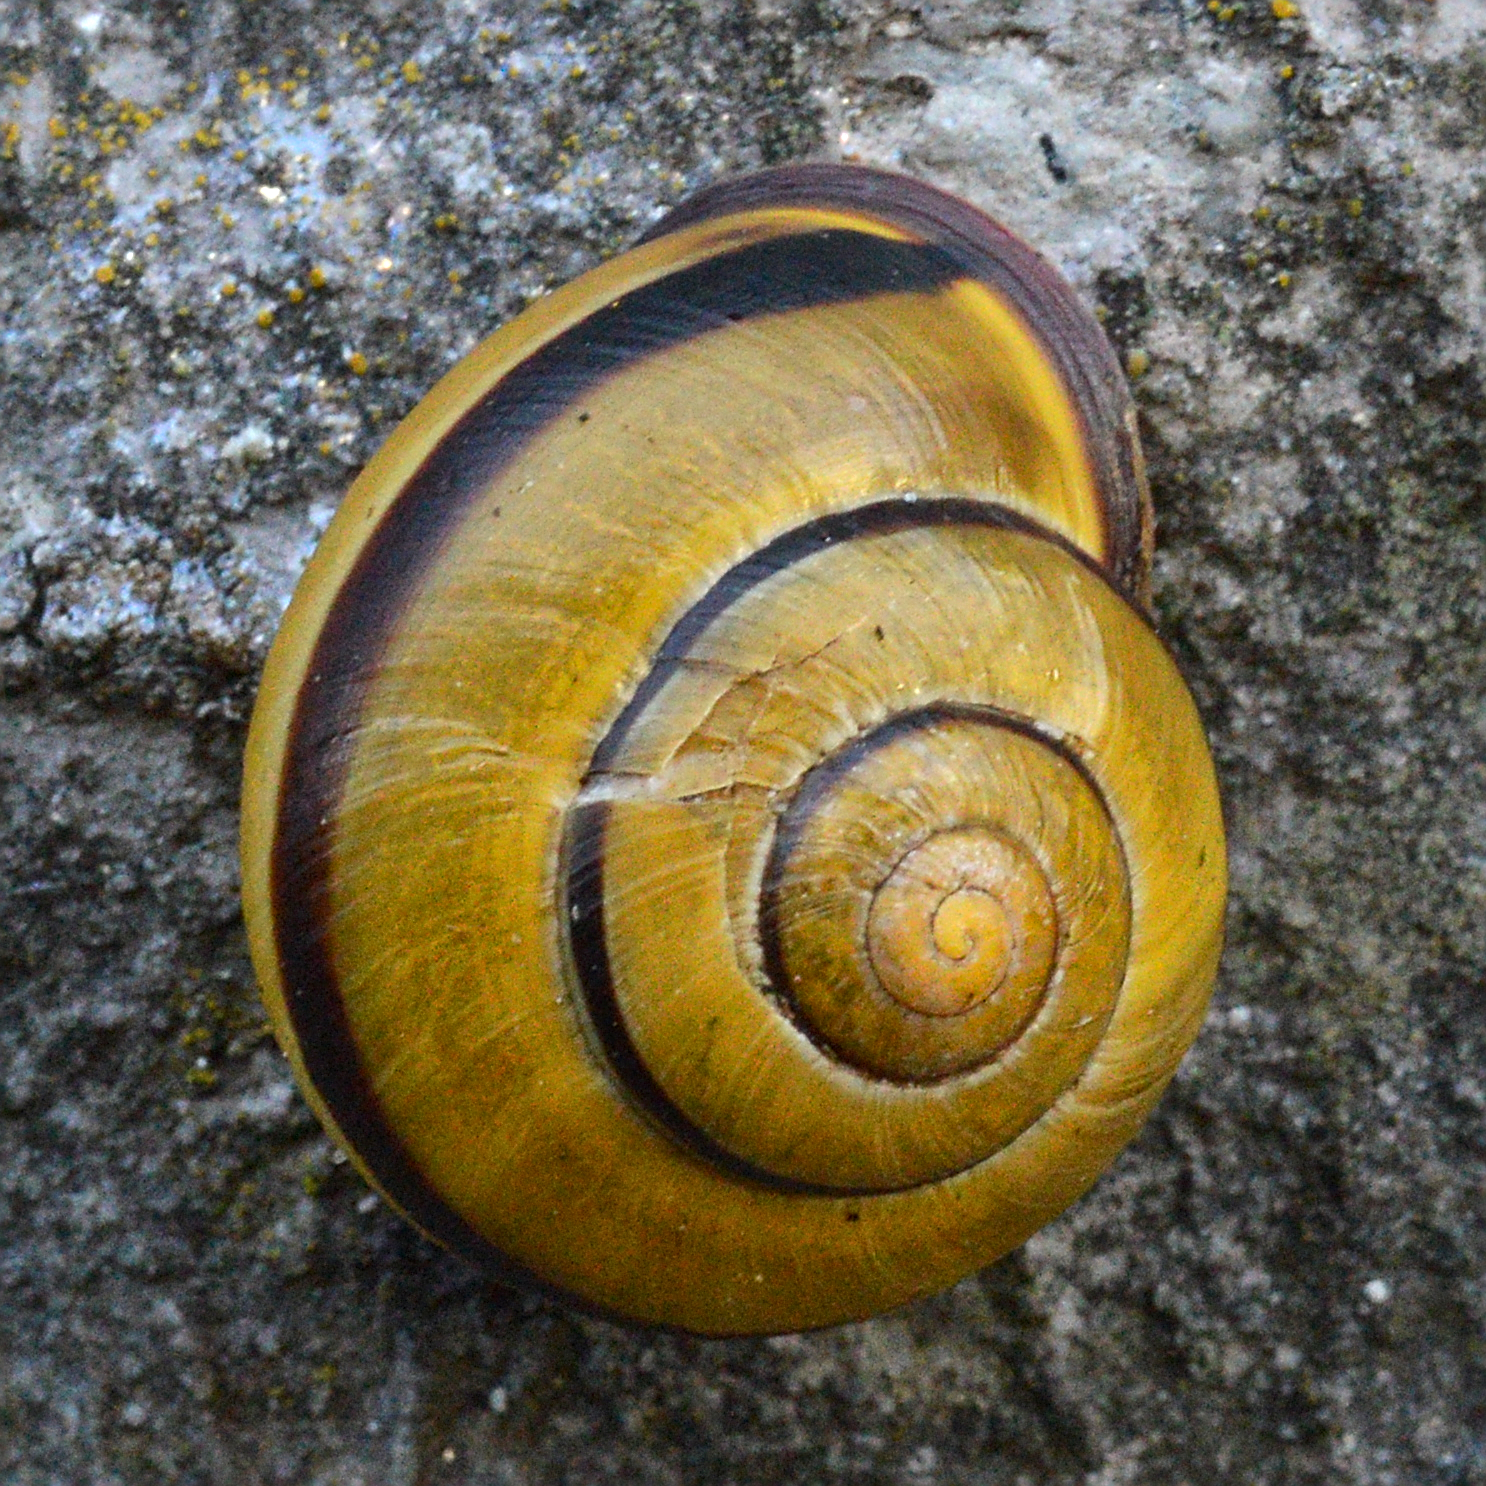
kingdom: Animalia
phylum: Mollusca
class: Gastropoda
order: Stylommatophora
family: Helicidae
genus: Cepaea
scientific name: Cepaea nemoralis
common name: Grovesnail
